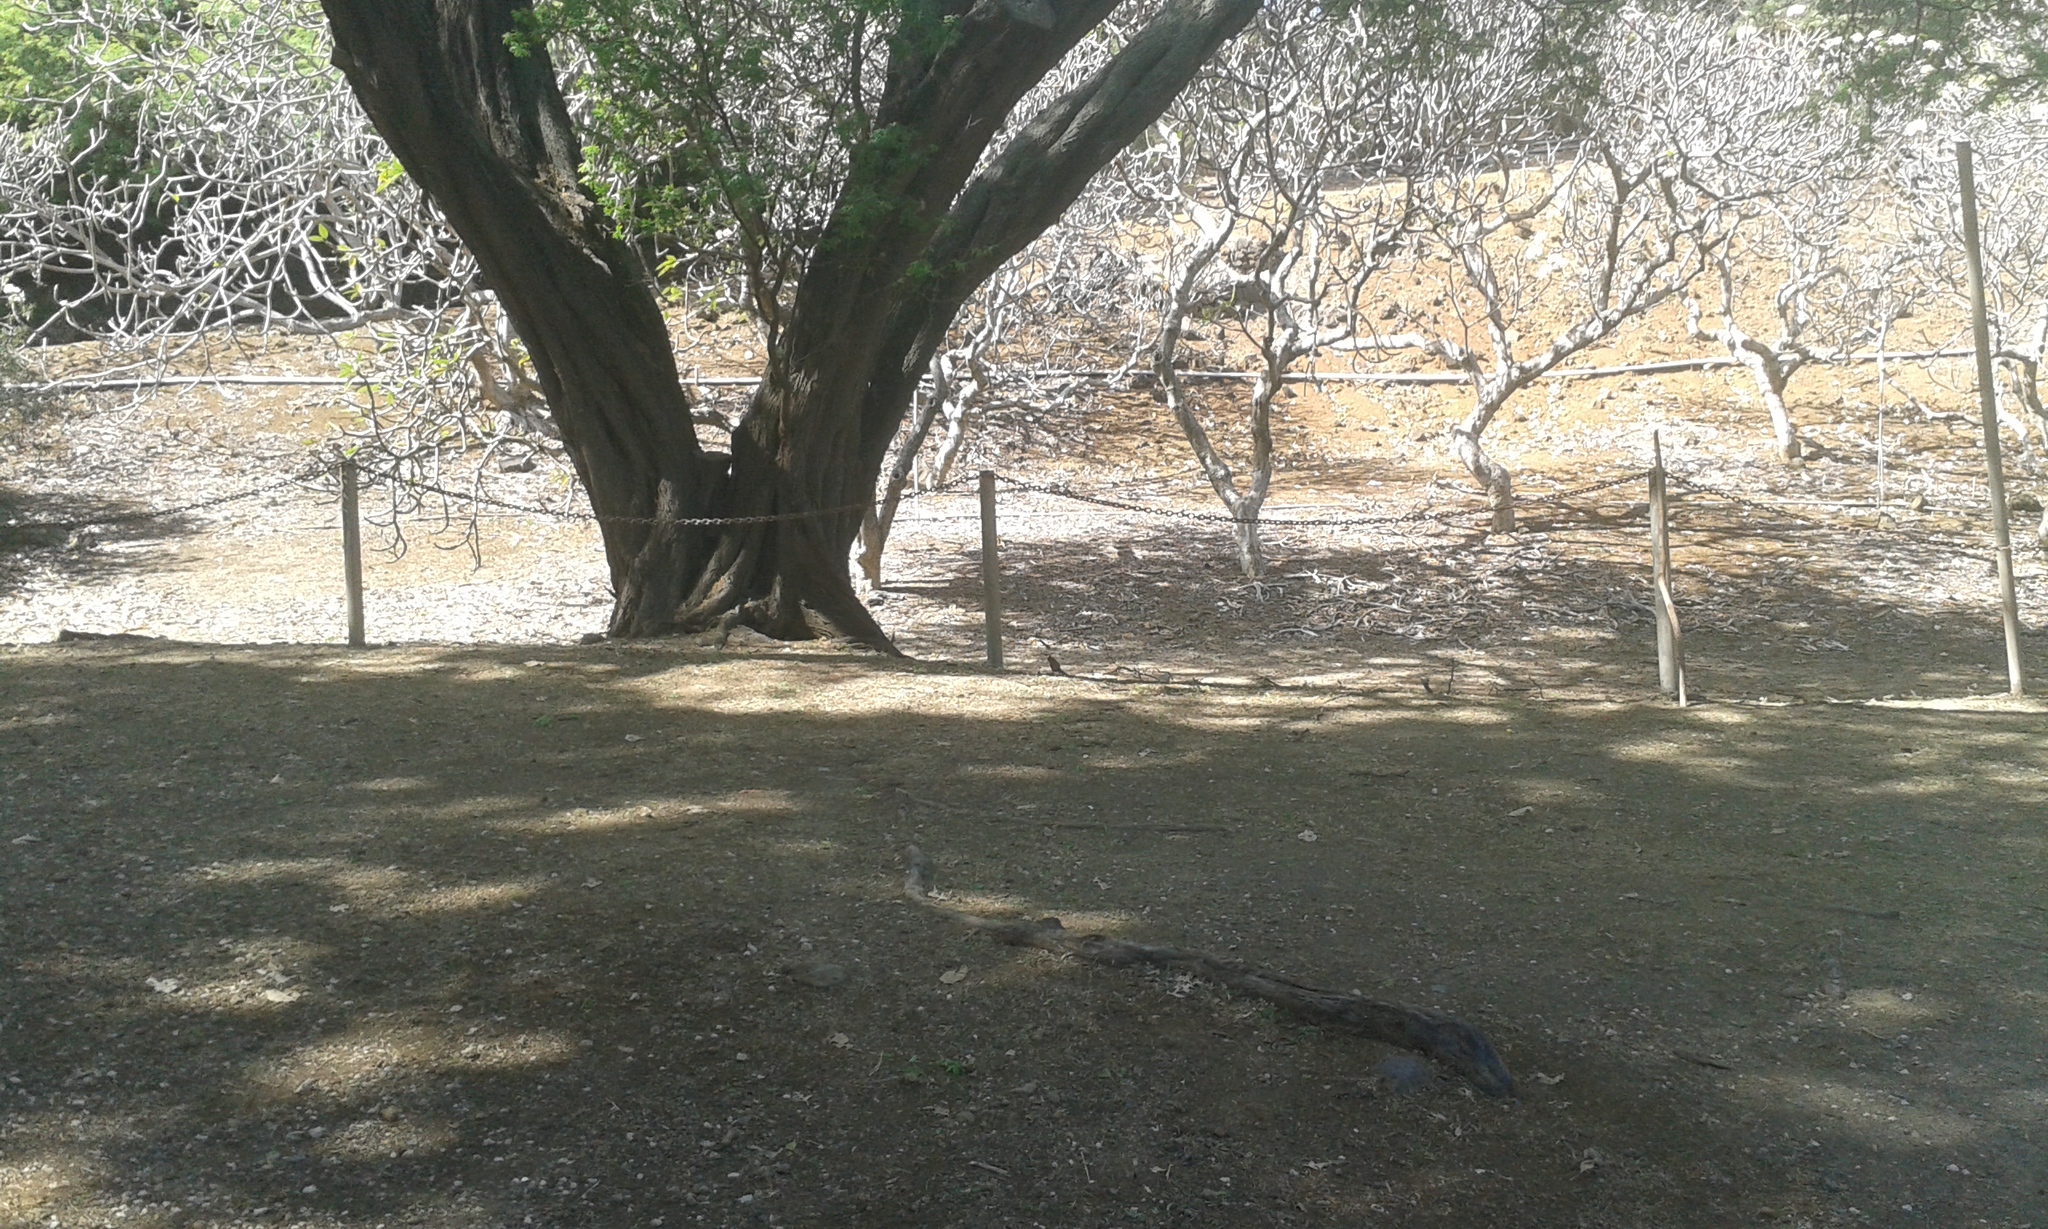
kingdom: Animalia
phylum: Chordata
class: Aves
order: Passeriformes
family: Cardinalidae
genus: Cardinalis
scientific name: Cardinalis cardinalis
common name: Northern cardinal
